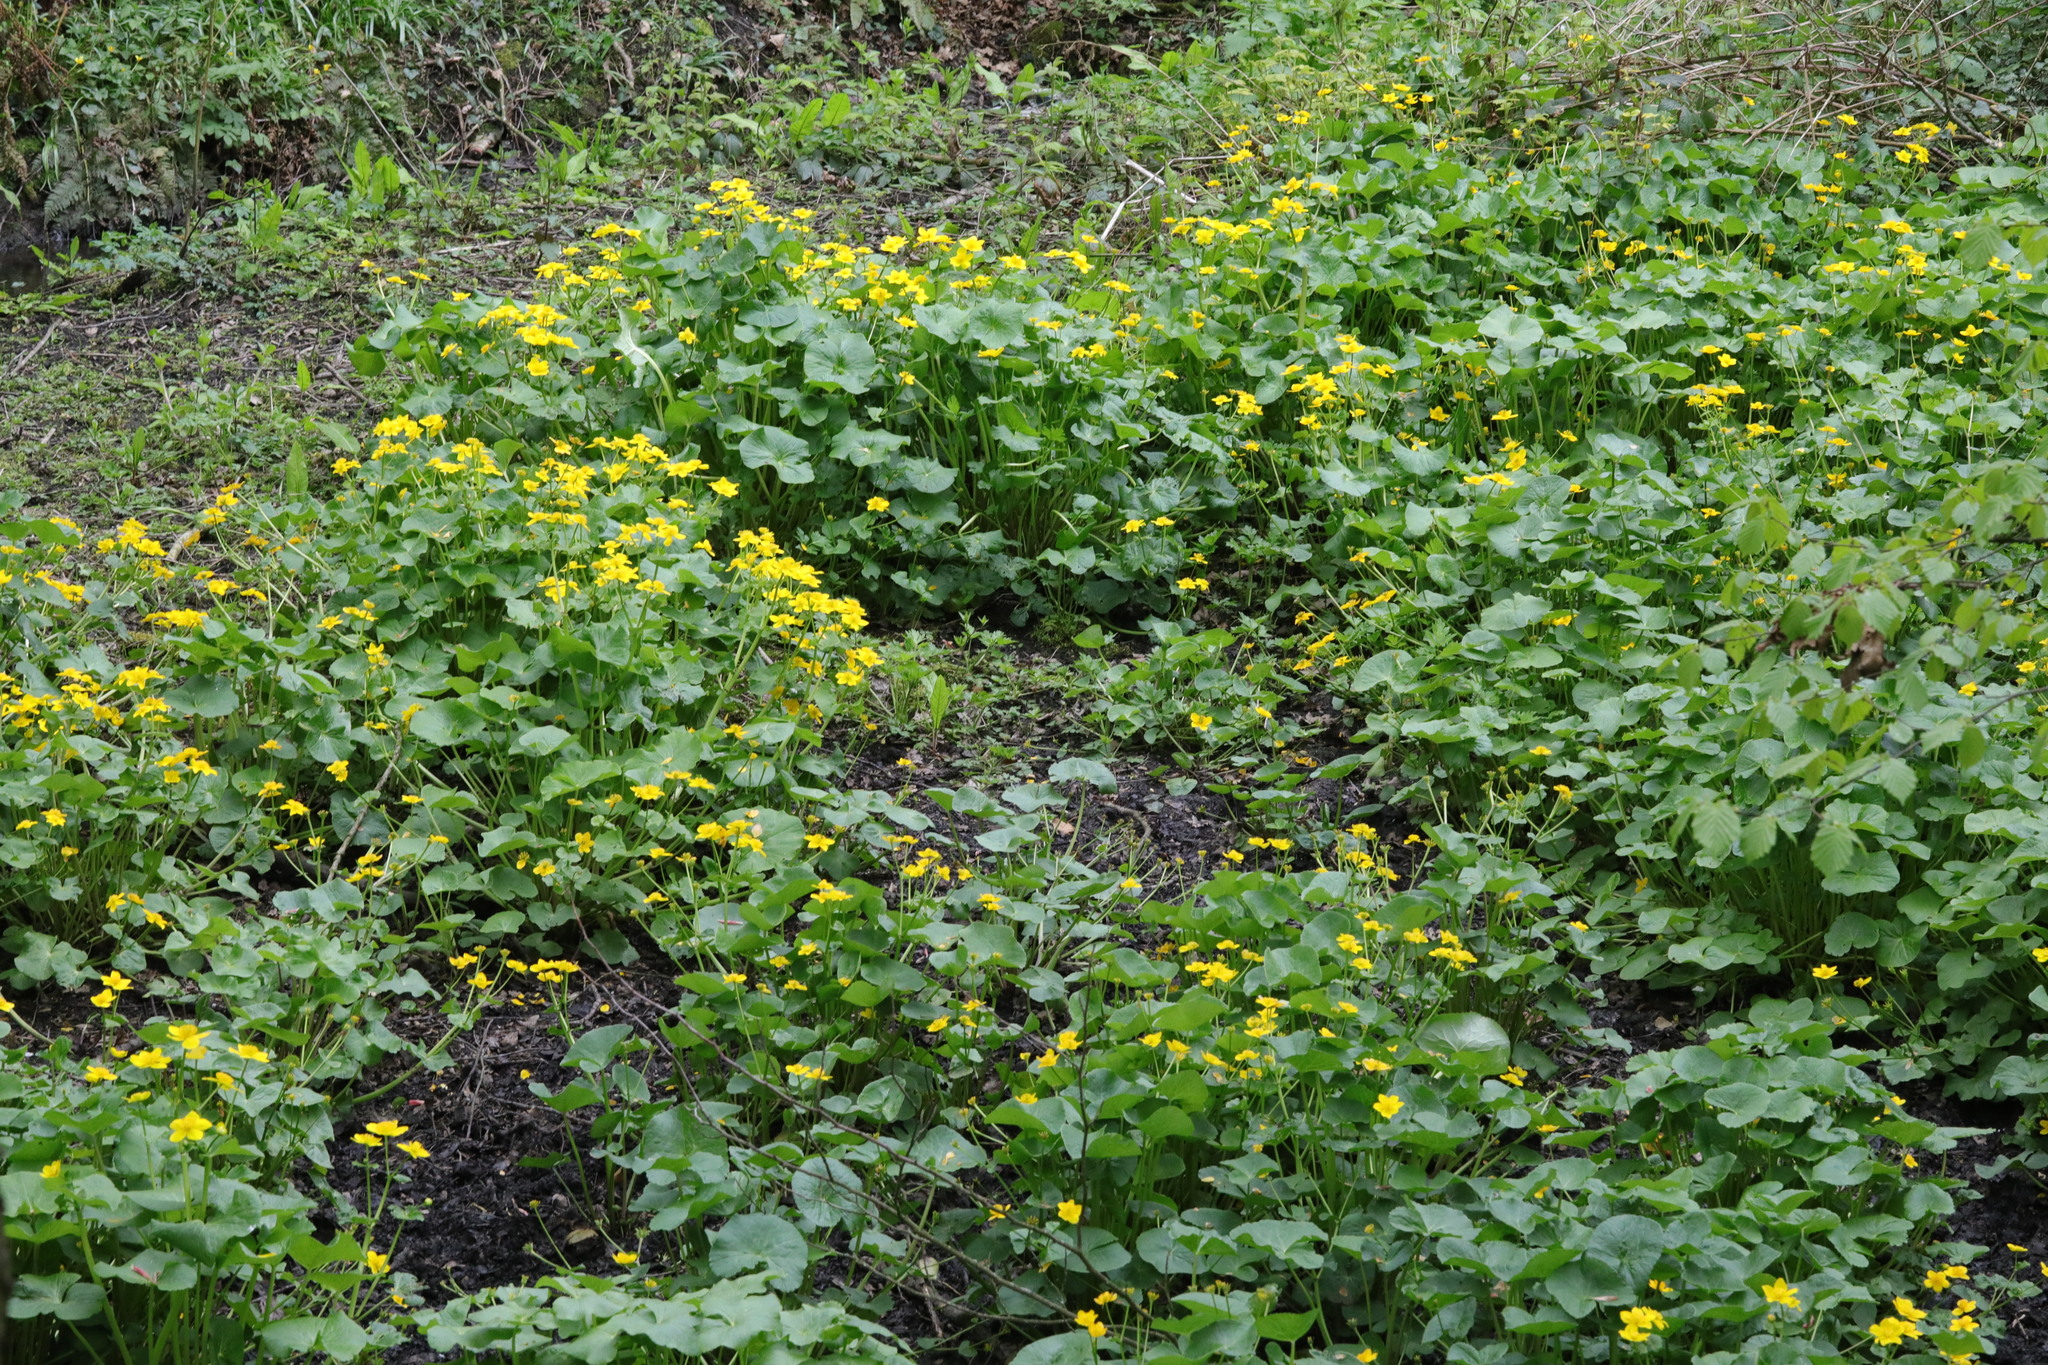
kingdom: Plantae
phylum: Tracheophyta
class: Magnoliopsida
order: Ranunculales
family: Ranunculaceae
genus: Caltha
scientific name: Caltha palustris
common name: Marsh marigold
